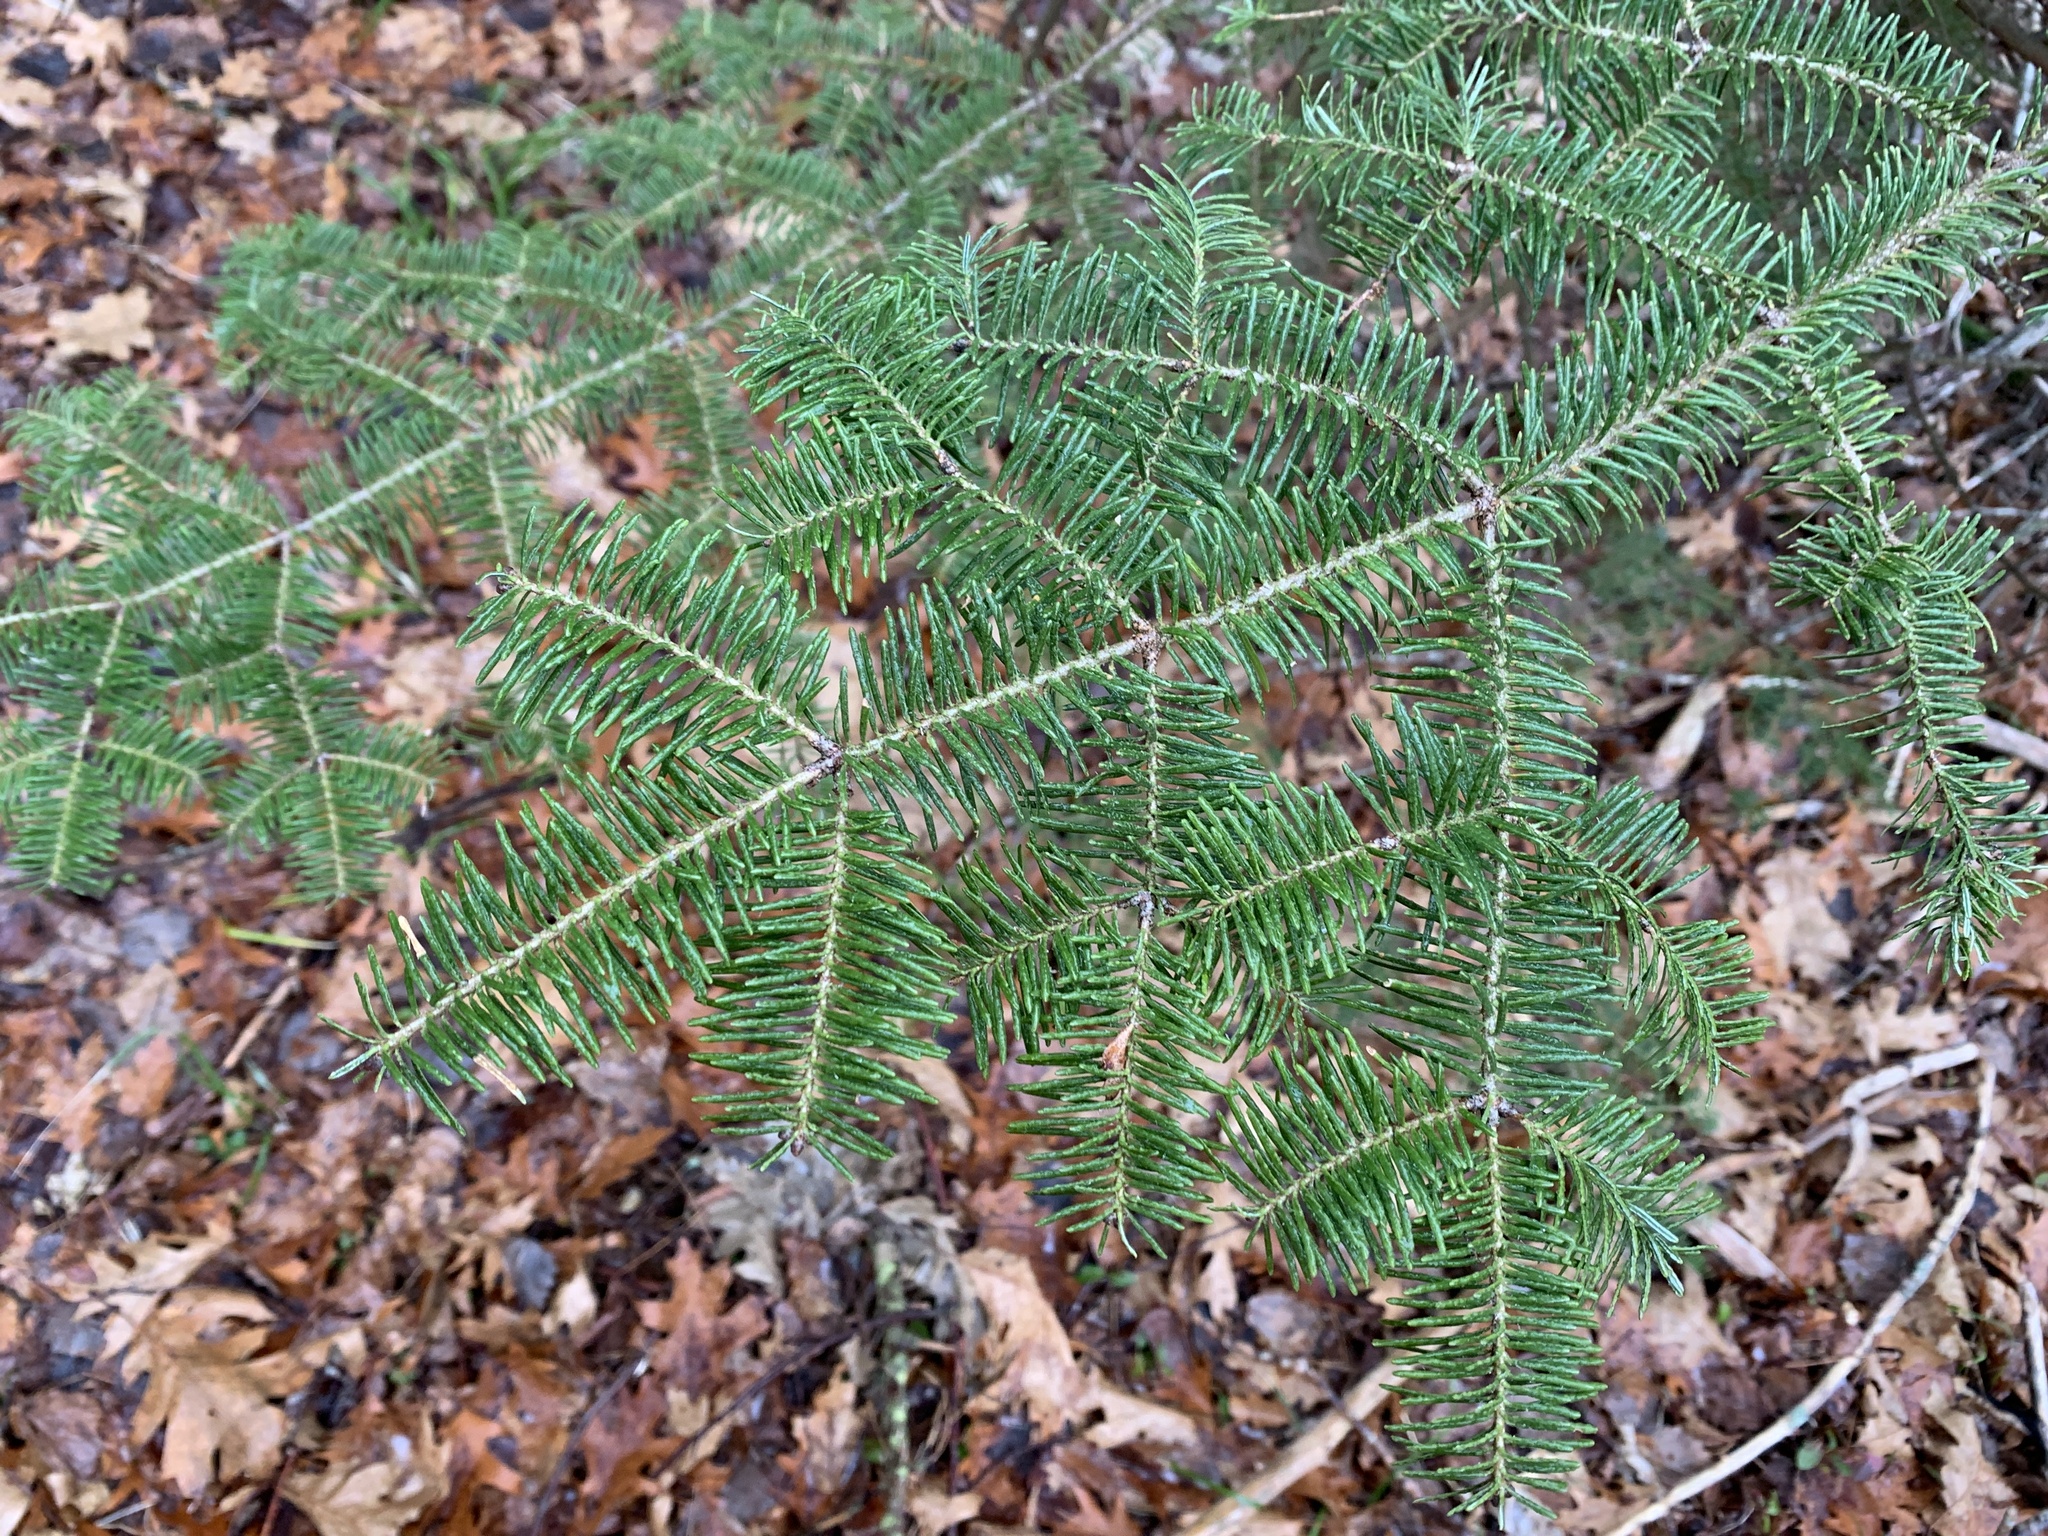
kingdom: Plantae
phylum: Tracheophyta
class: Pinopsida
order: Pinales
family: Pinaceae
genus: Abies
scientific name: Abies balsamea
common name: Balsam fir
